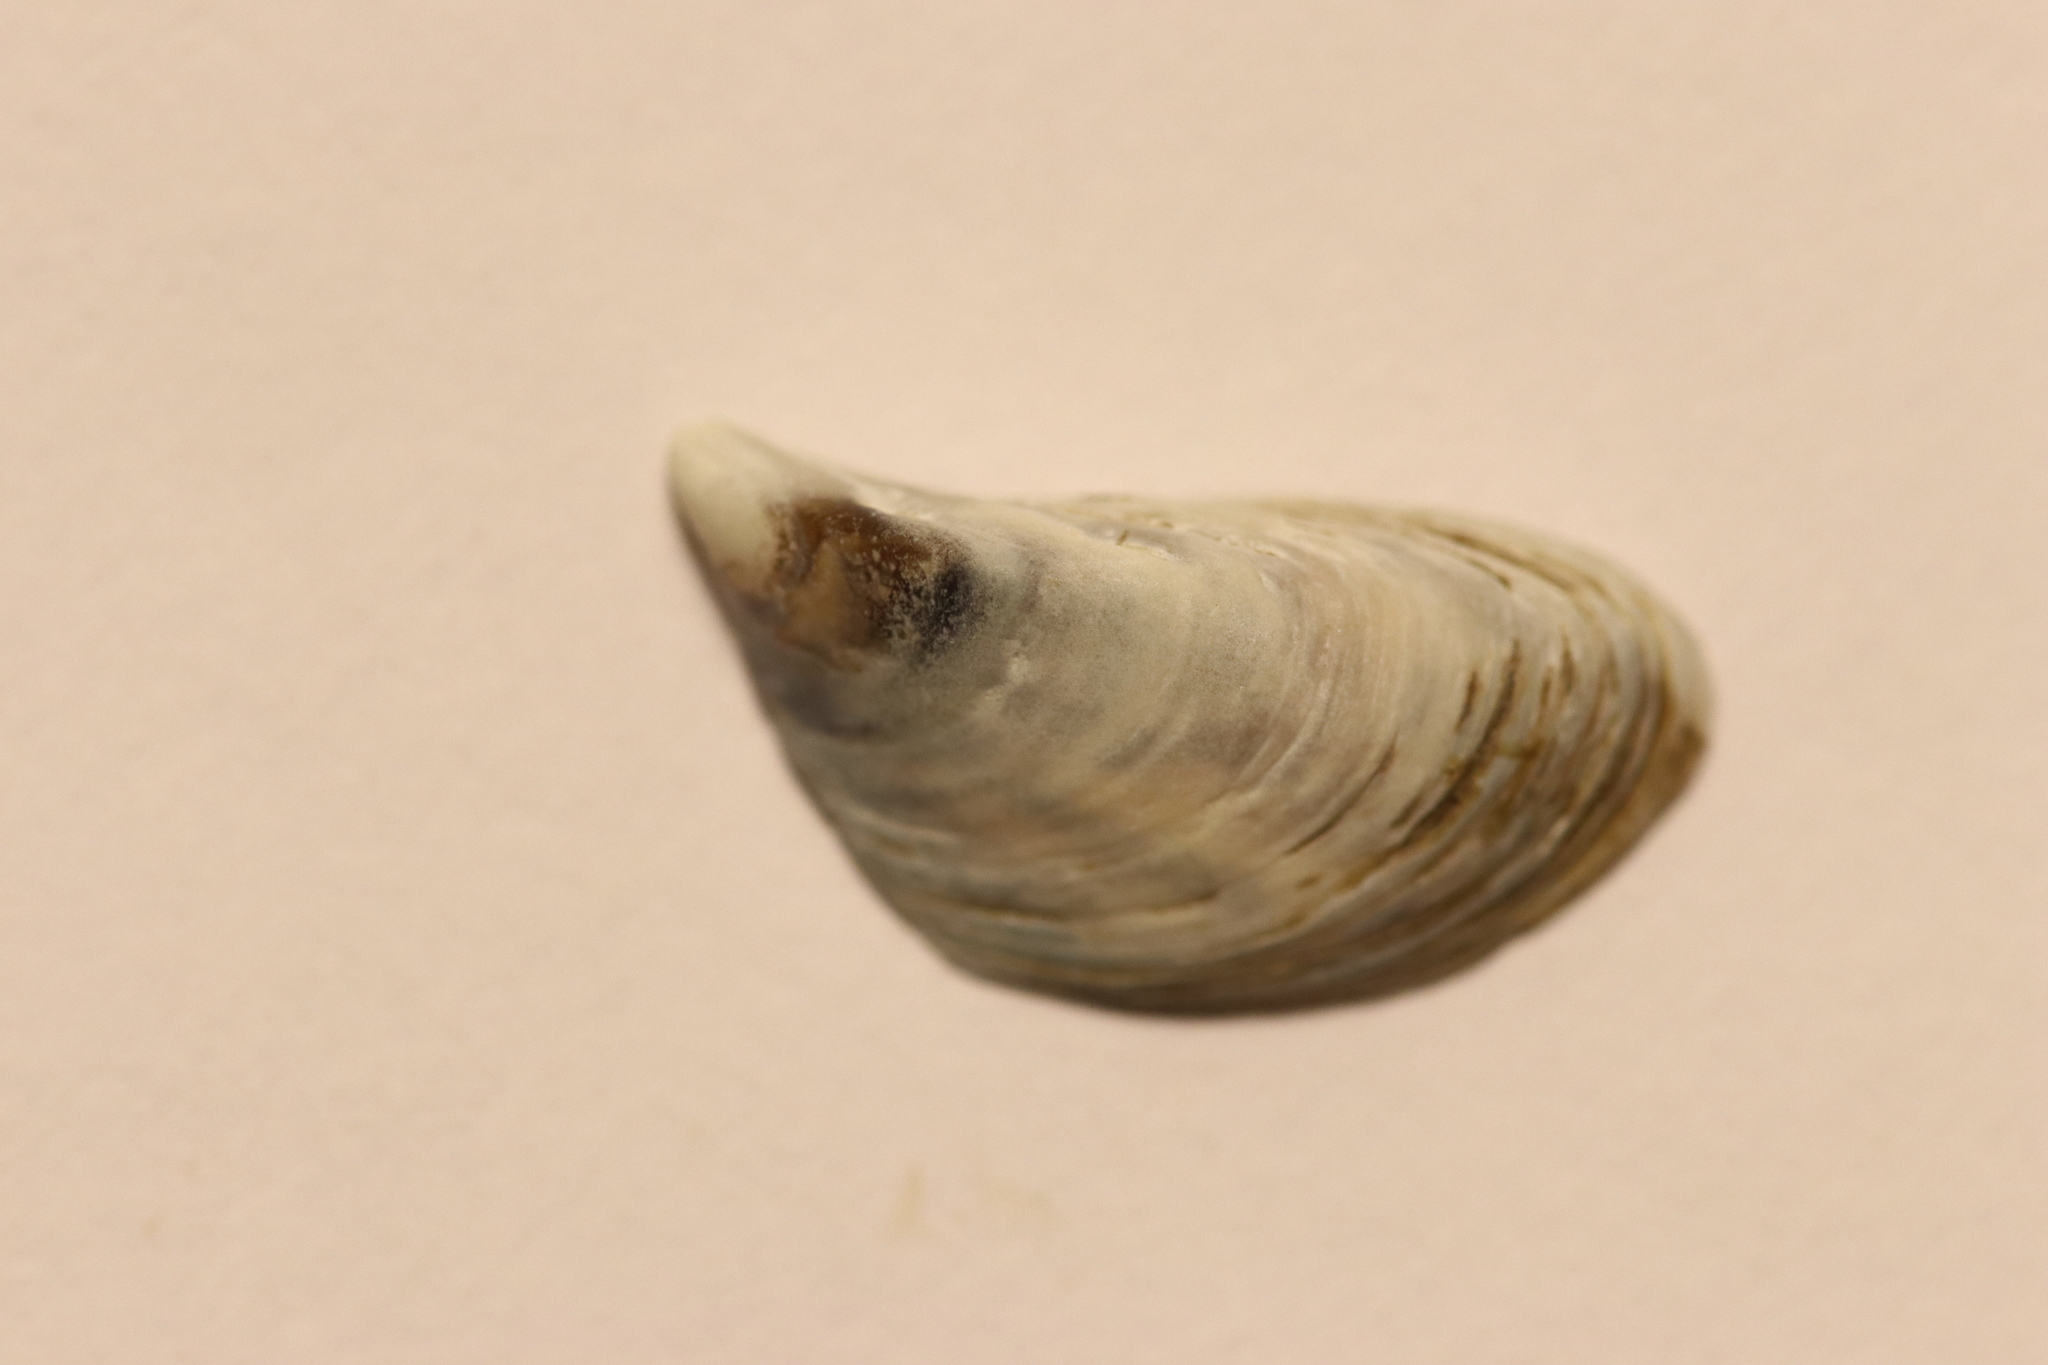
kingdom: Animalia
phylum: Mollusca
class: Bivalvia
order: Myida
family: Dreissenidae
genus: Dreissena
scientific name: Dreissena polymorpha
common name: Zebra mussel
